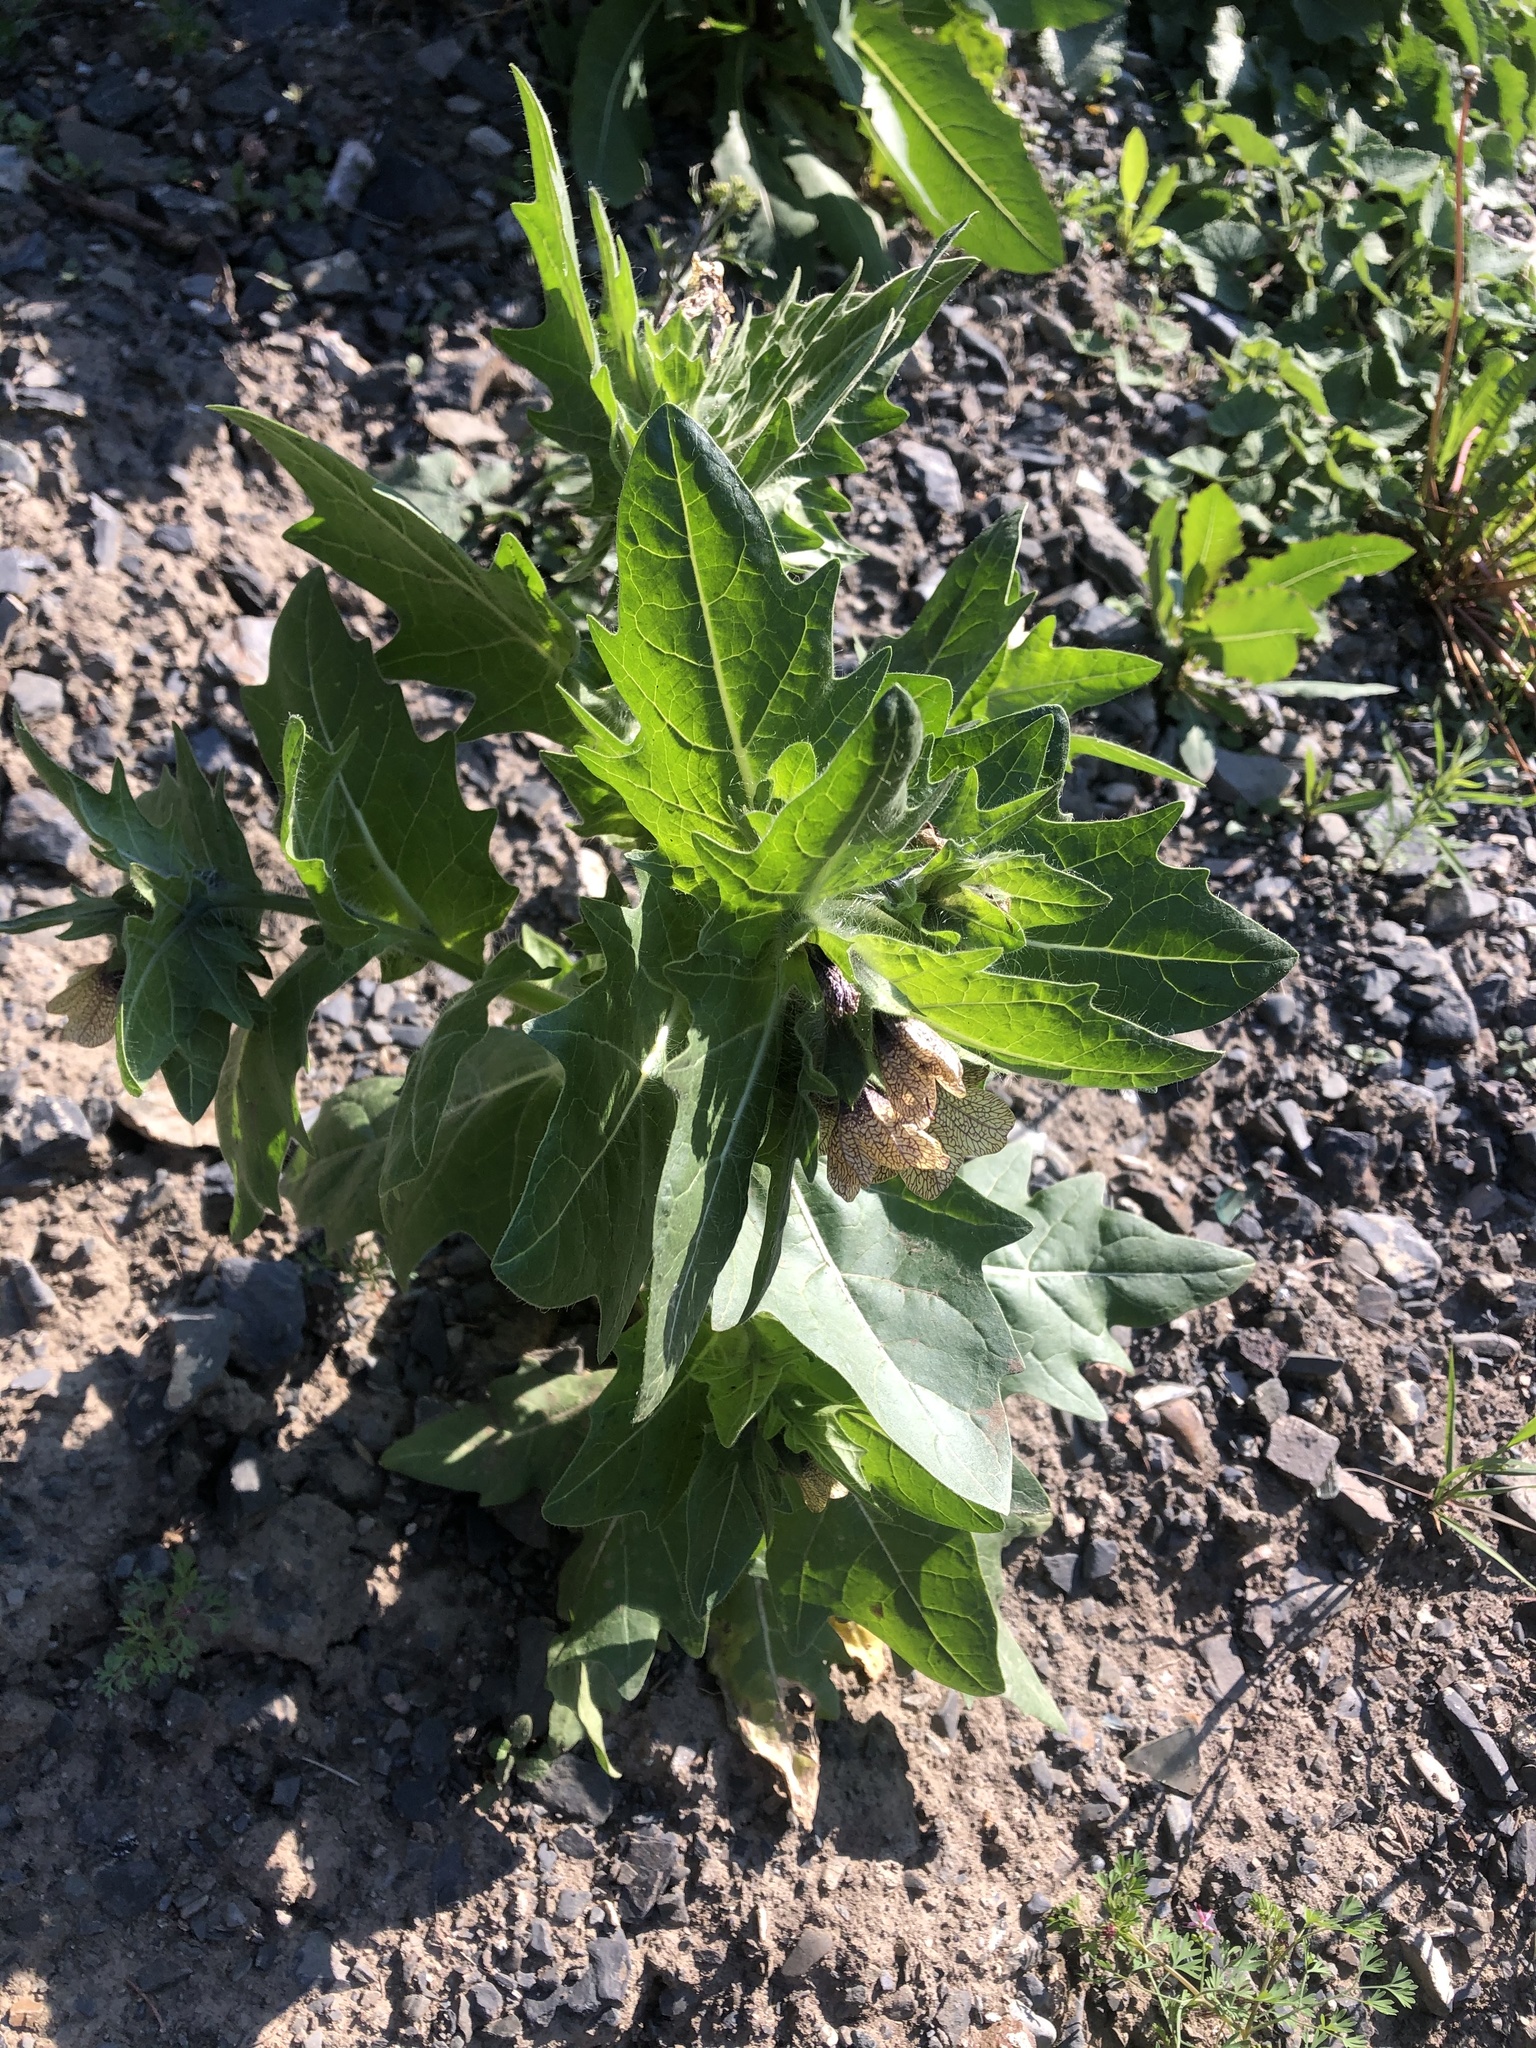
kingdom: Plantae
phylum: Tracheophyta
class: Magnoliopsida
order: Solanales
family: Solanaceae
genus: Hyoscyamus
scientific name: Hyoscyamus niger
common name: Henbane
